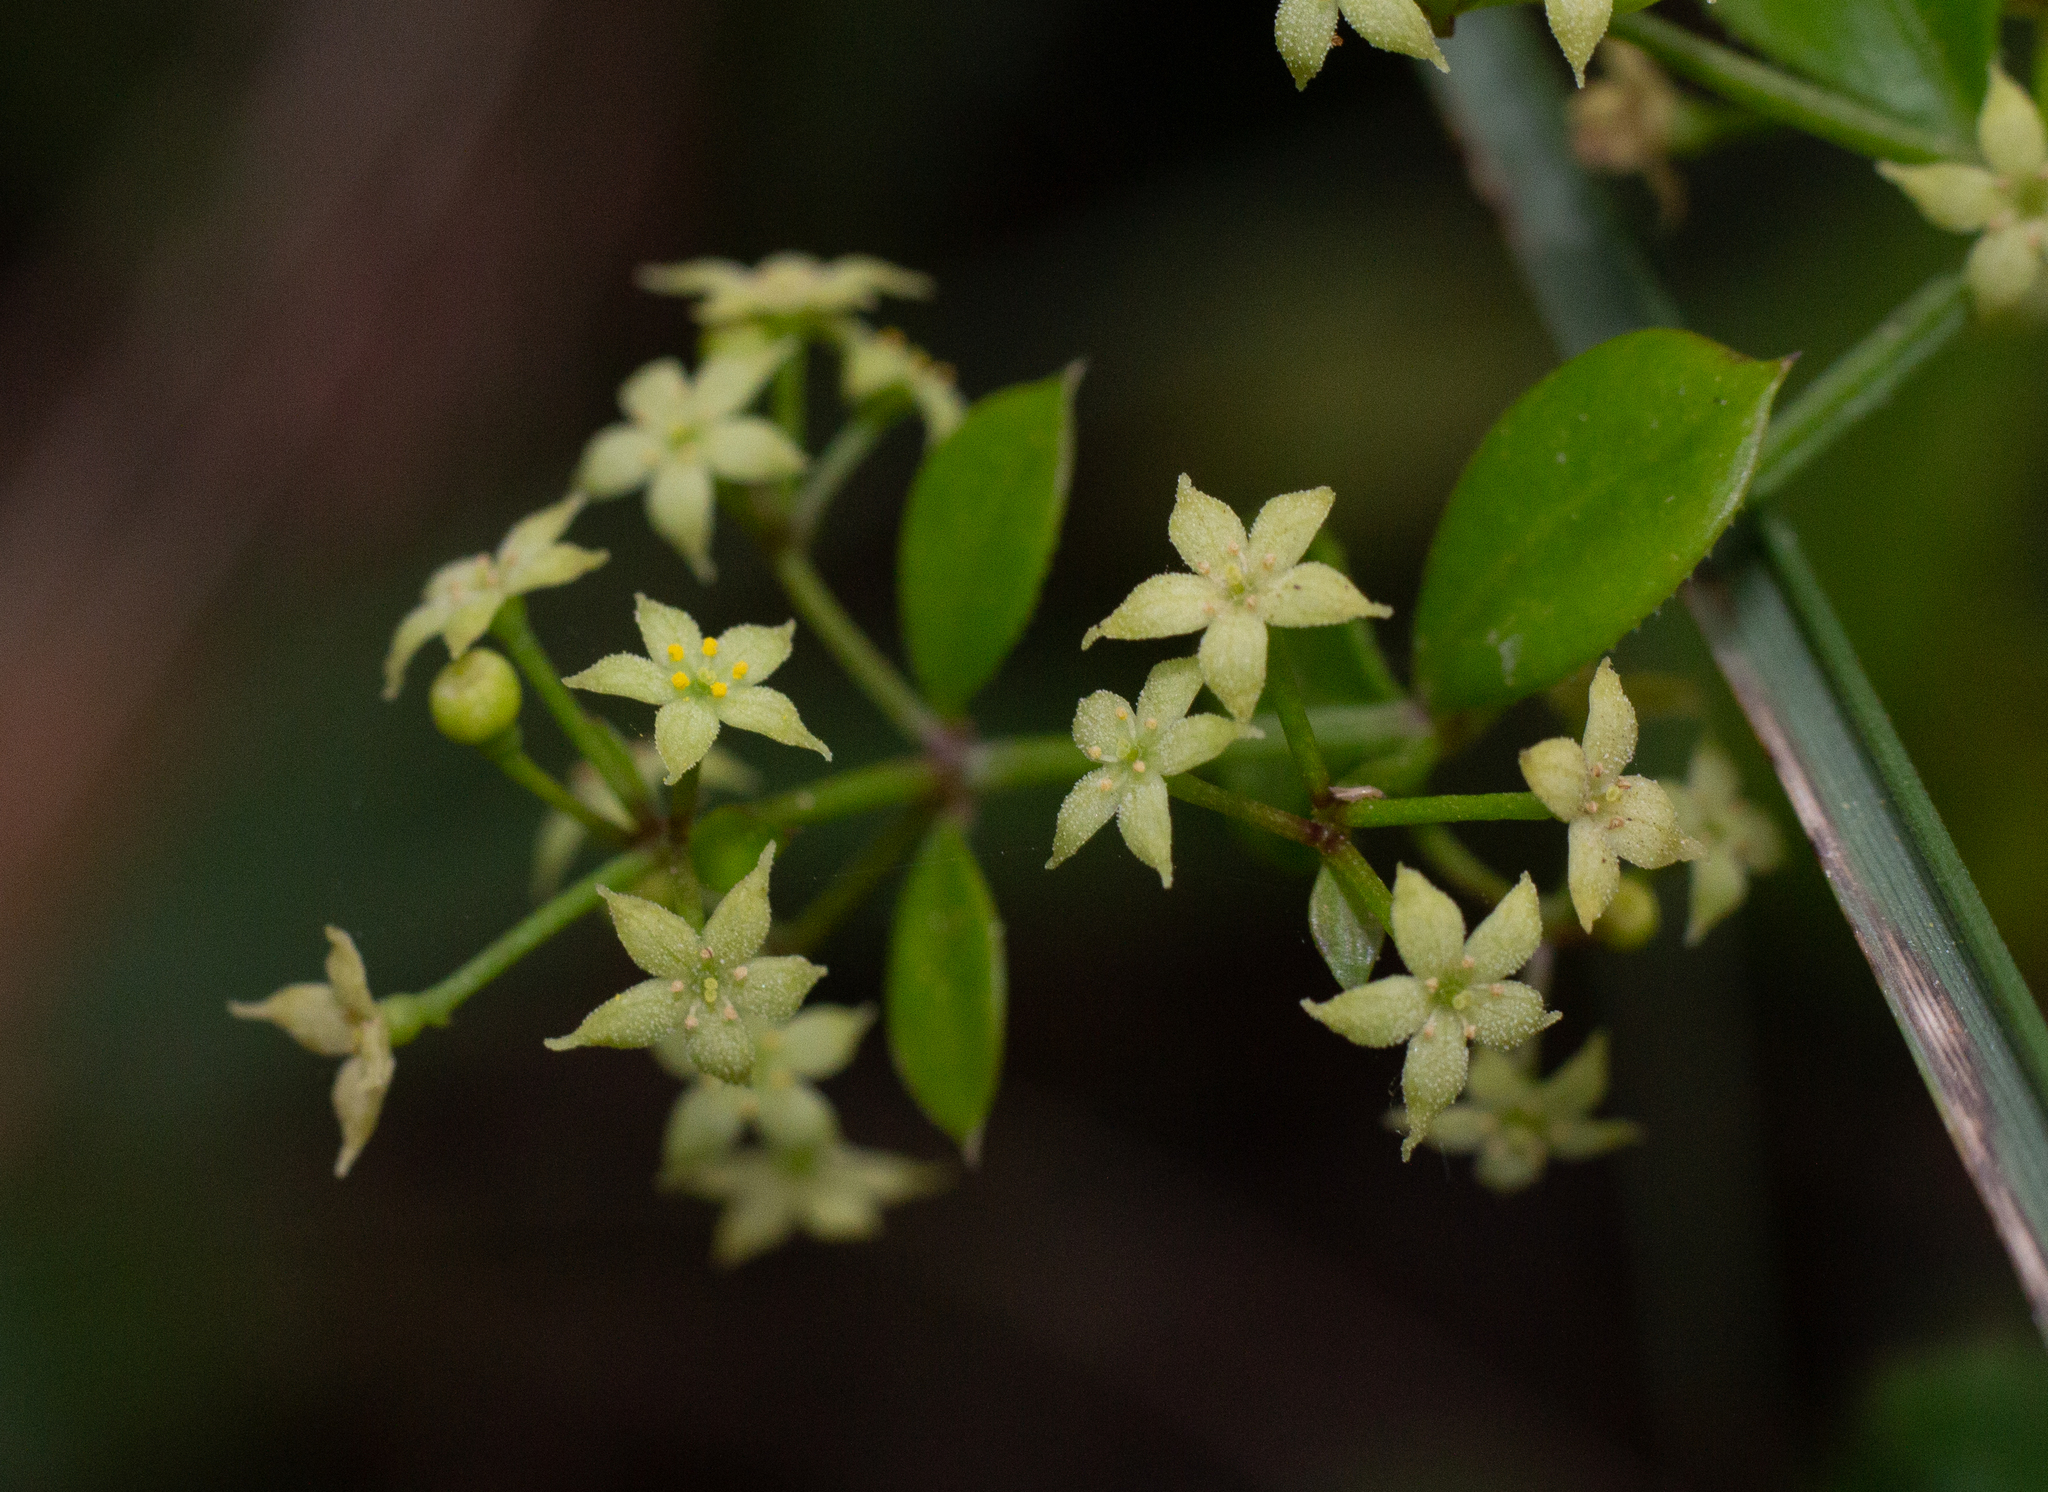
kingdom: Plantae
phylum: Tracheophyta
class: Magnoliopsida
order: Gentianales
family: Rubiaceae
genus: Rubia
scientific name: Rubia peregrina
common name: Wild madder
